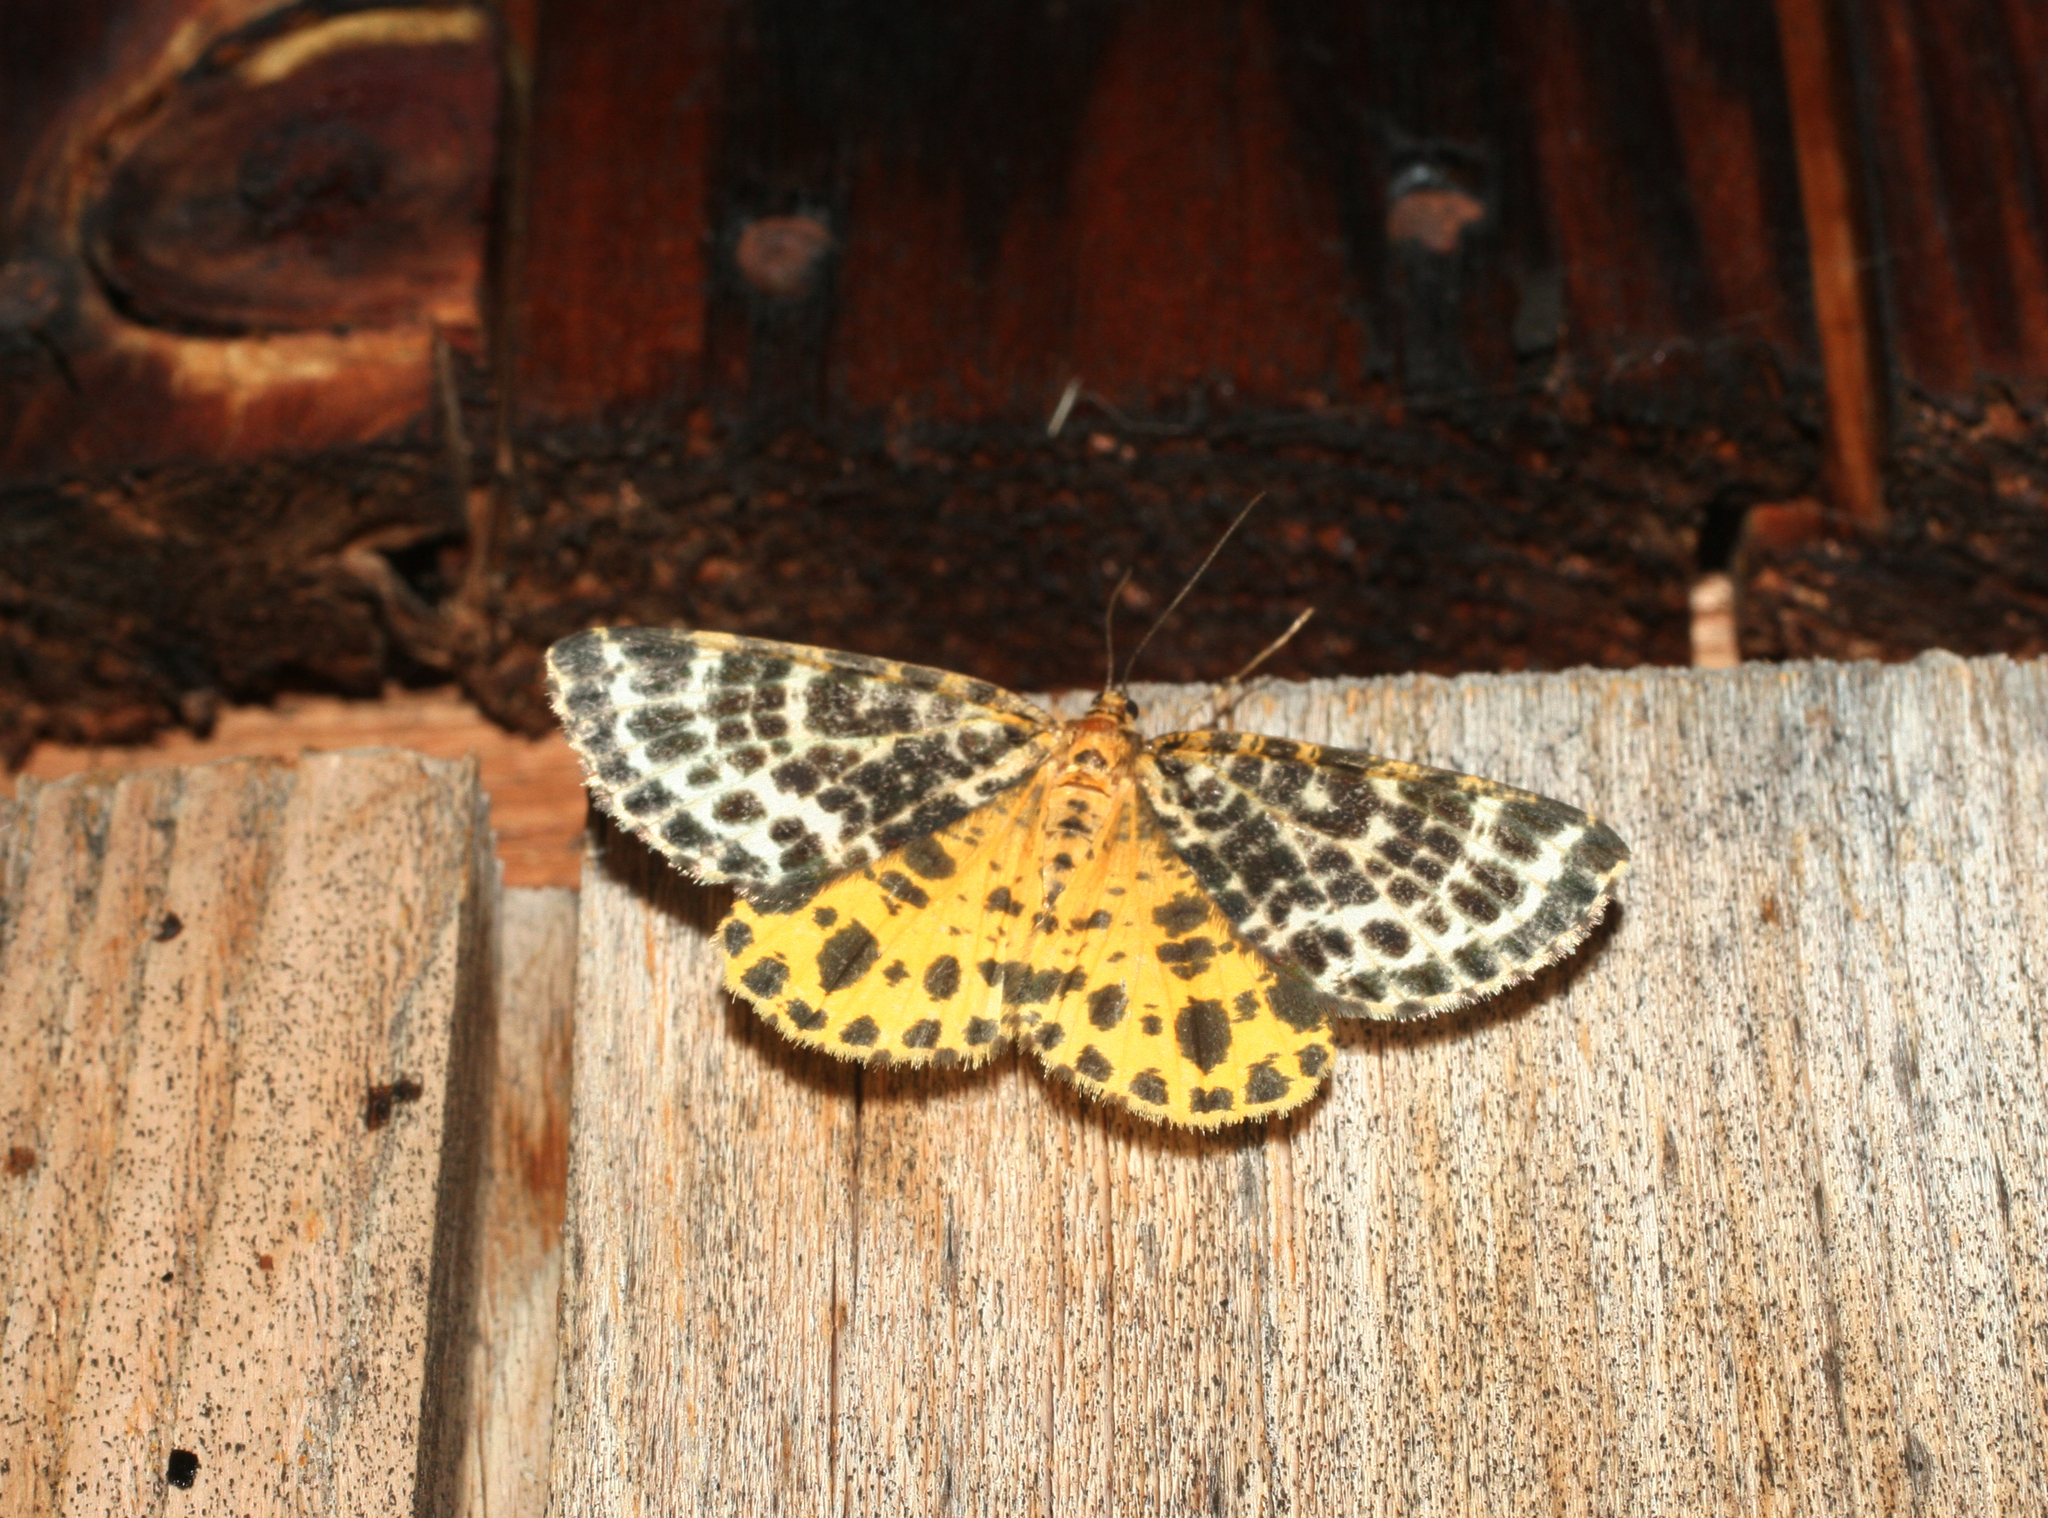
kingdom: Animalia
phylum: Arthropoda
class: Insecta
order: Lepidoptera
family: Geometridae
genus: Arichanna
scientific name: Arichanna melanaria
